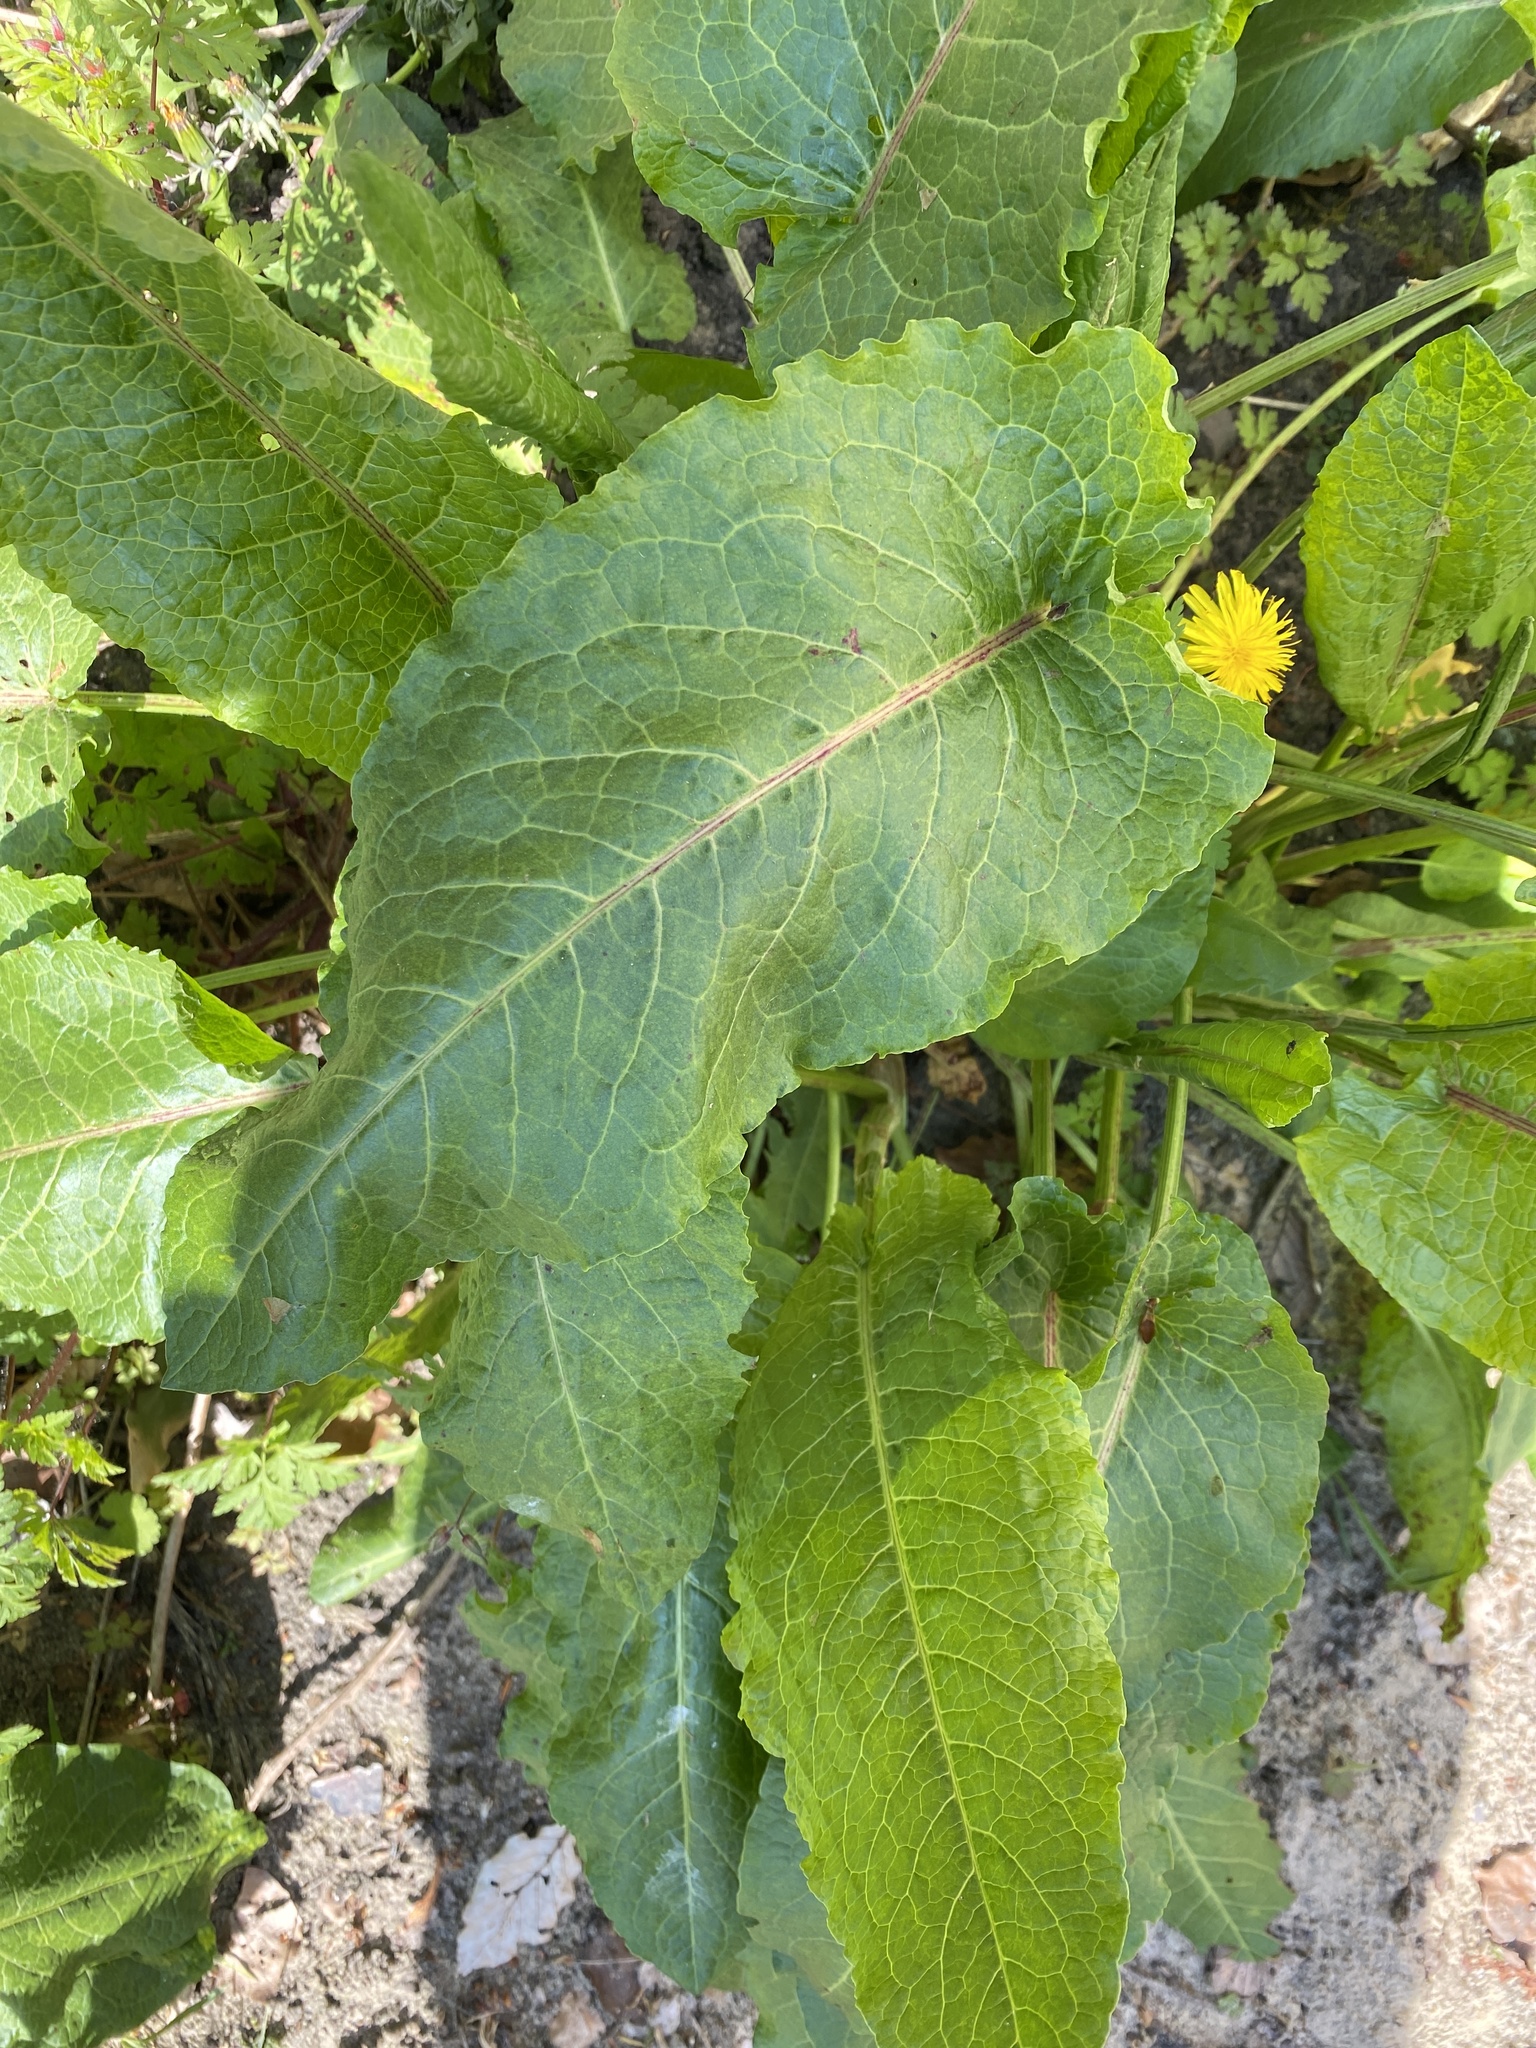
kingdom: Plantae
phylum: Tracheophyta
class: Magnoliopsida
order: Caryophyllales
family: Polygonaceae
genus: Rumex
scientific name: Rumex obtusifolius
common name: Bitter dock
